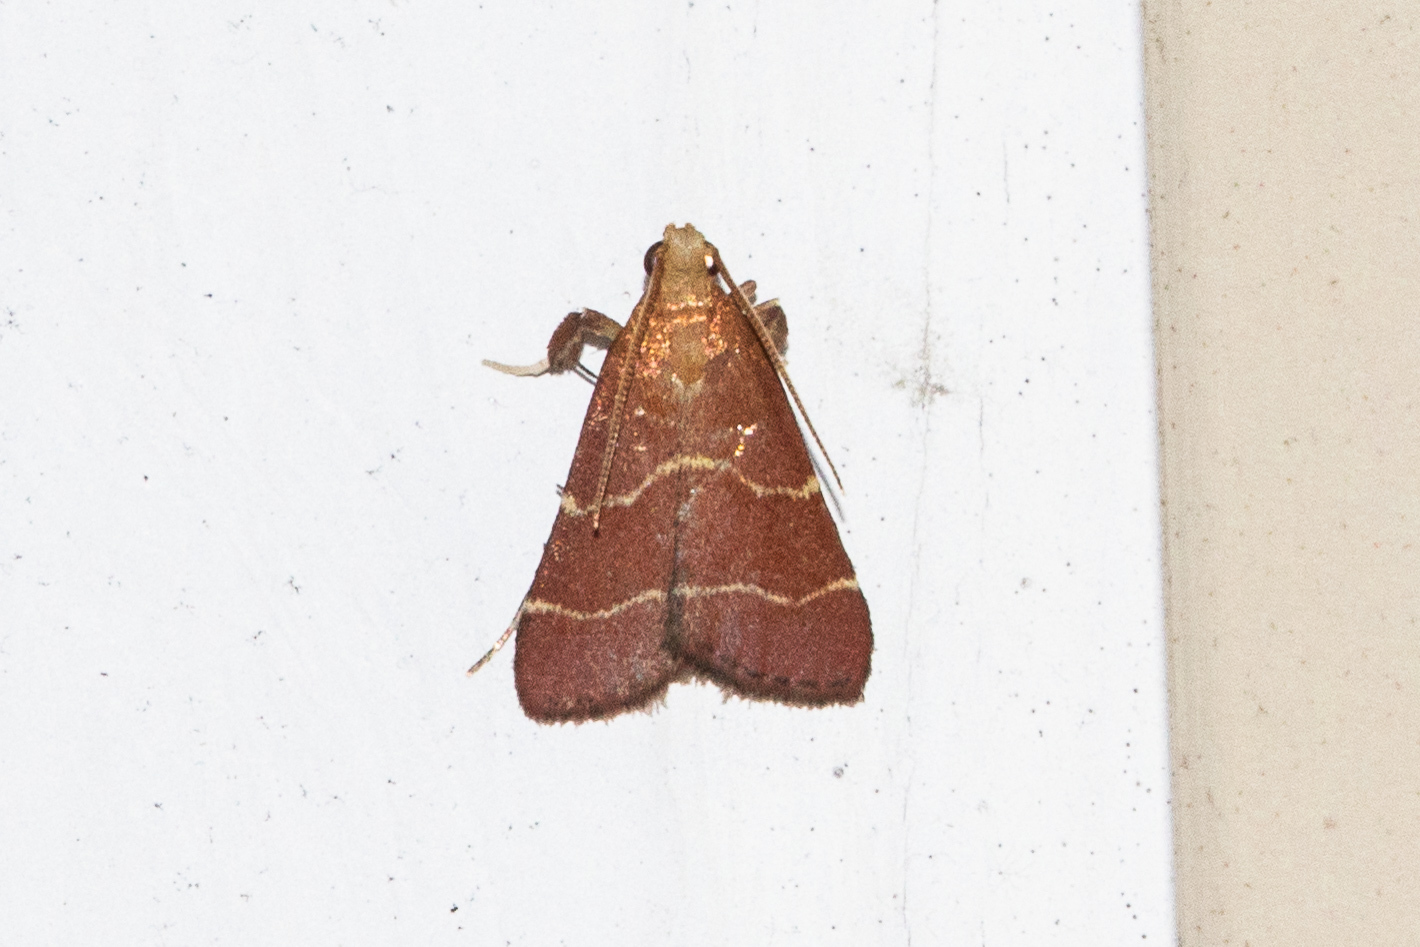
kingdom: Animalia
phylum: Arthropoda
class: Insecta
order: Lepidoptera
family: Pyralidae
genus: Arta
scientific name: Arta statalis
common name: Posturing arta moth
